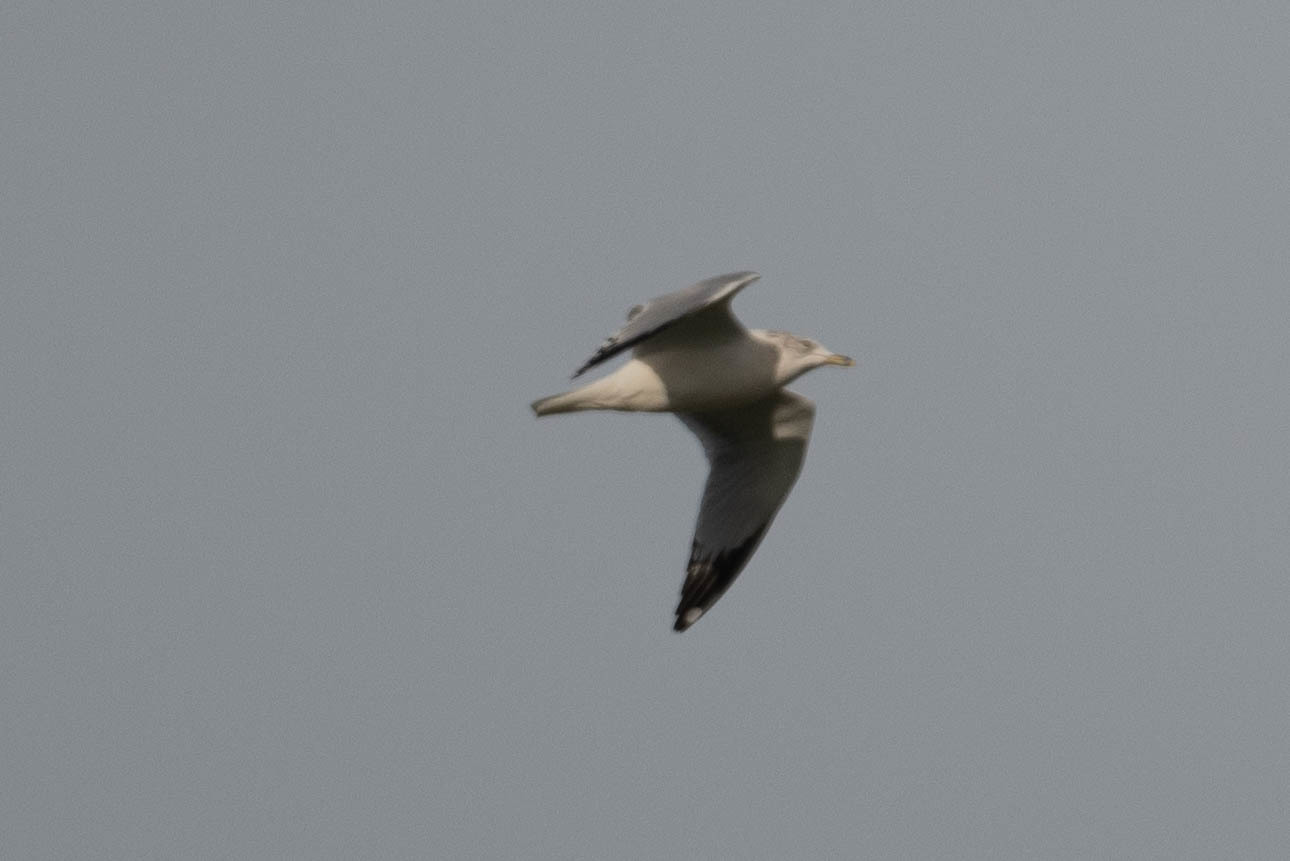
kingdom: Animalia
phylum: Chordata
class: Aves
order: Charadriiformes
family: Laridae
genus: Larus
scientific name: Larus delawarensis
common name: Ring-billed gull
